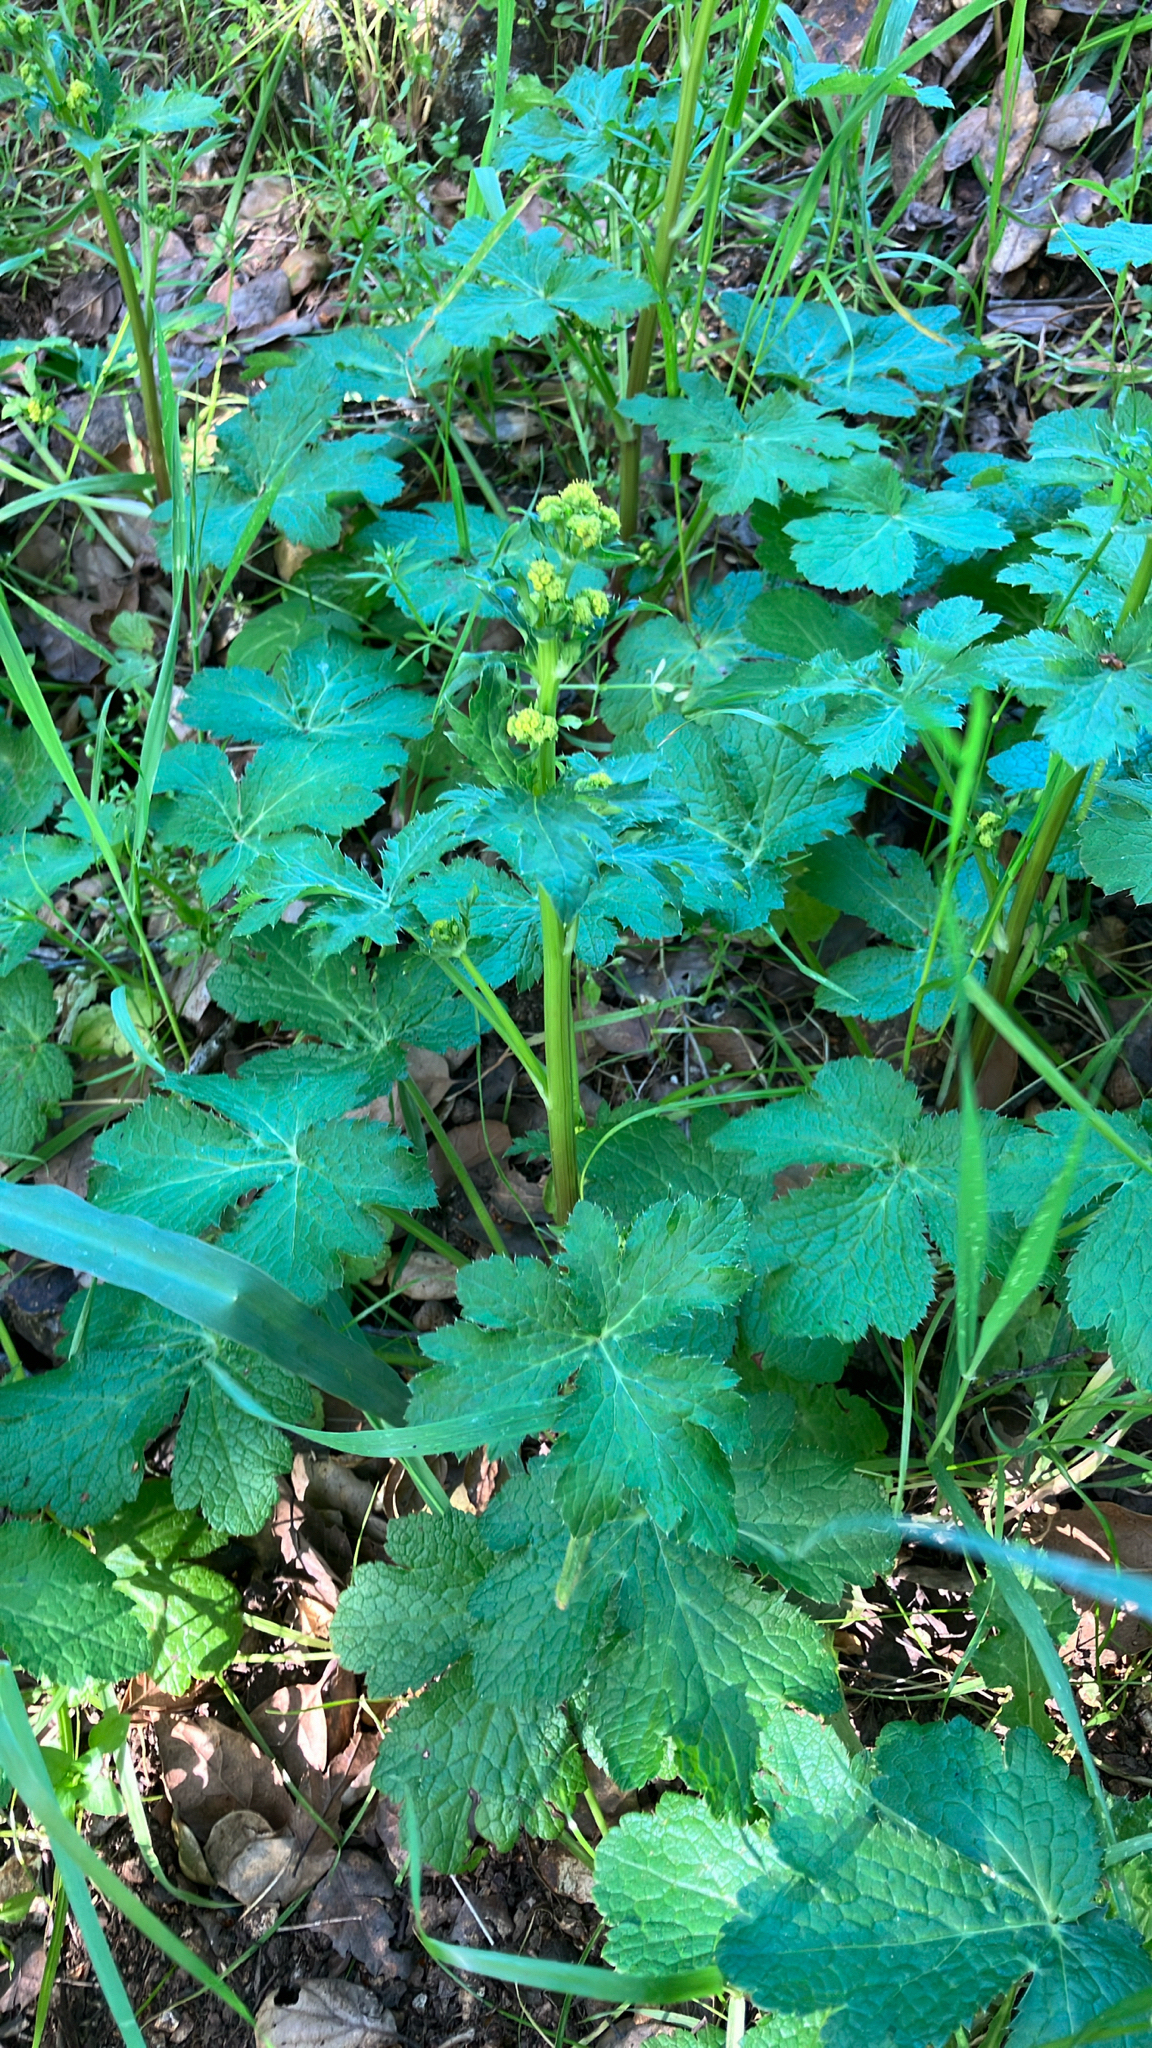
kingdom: Plantae
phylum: Tracheophyta
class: Magnoliopsida
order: Apiales
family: Apiaceae
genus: Sanicula
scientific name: Sanicula crassicaulis
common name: Western snakeroot
